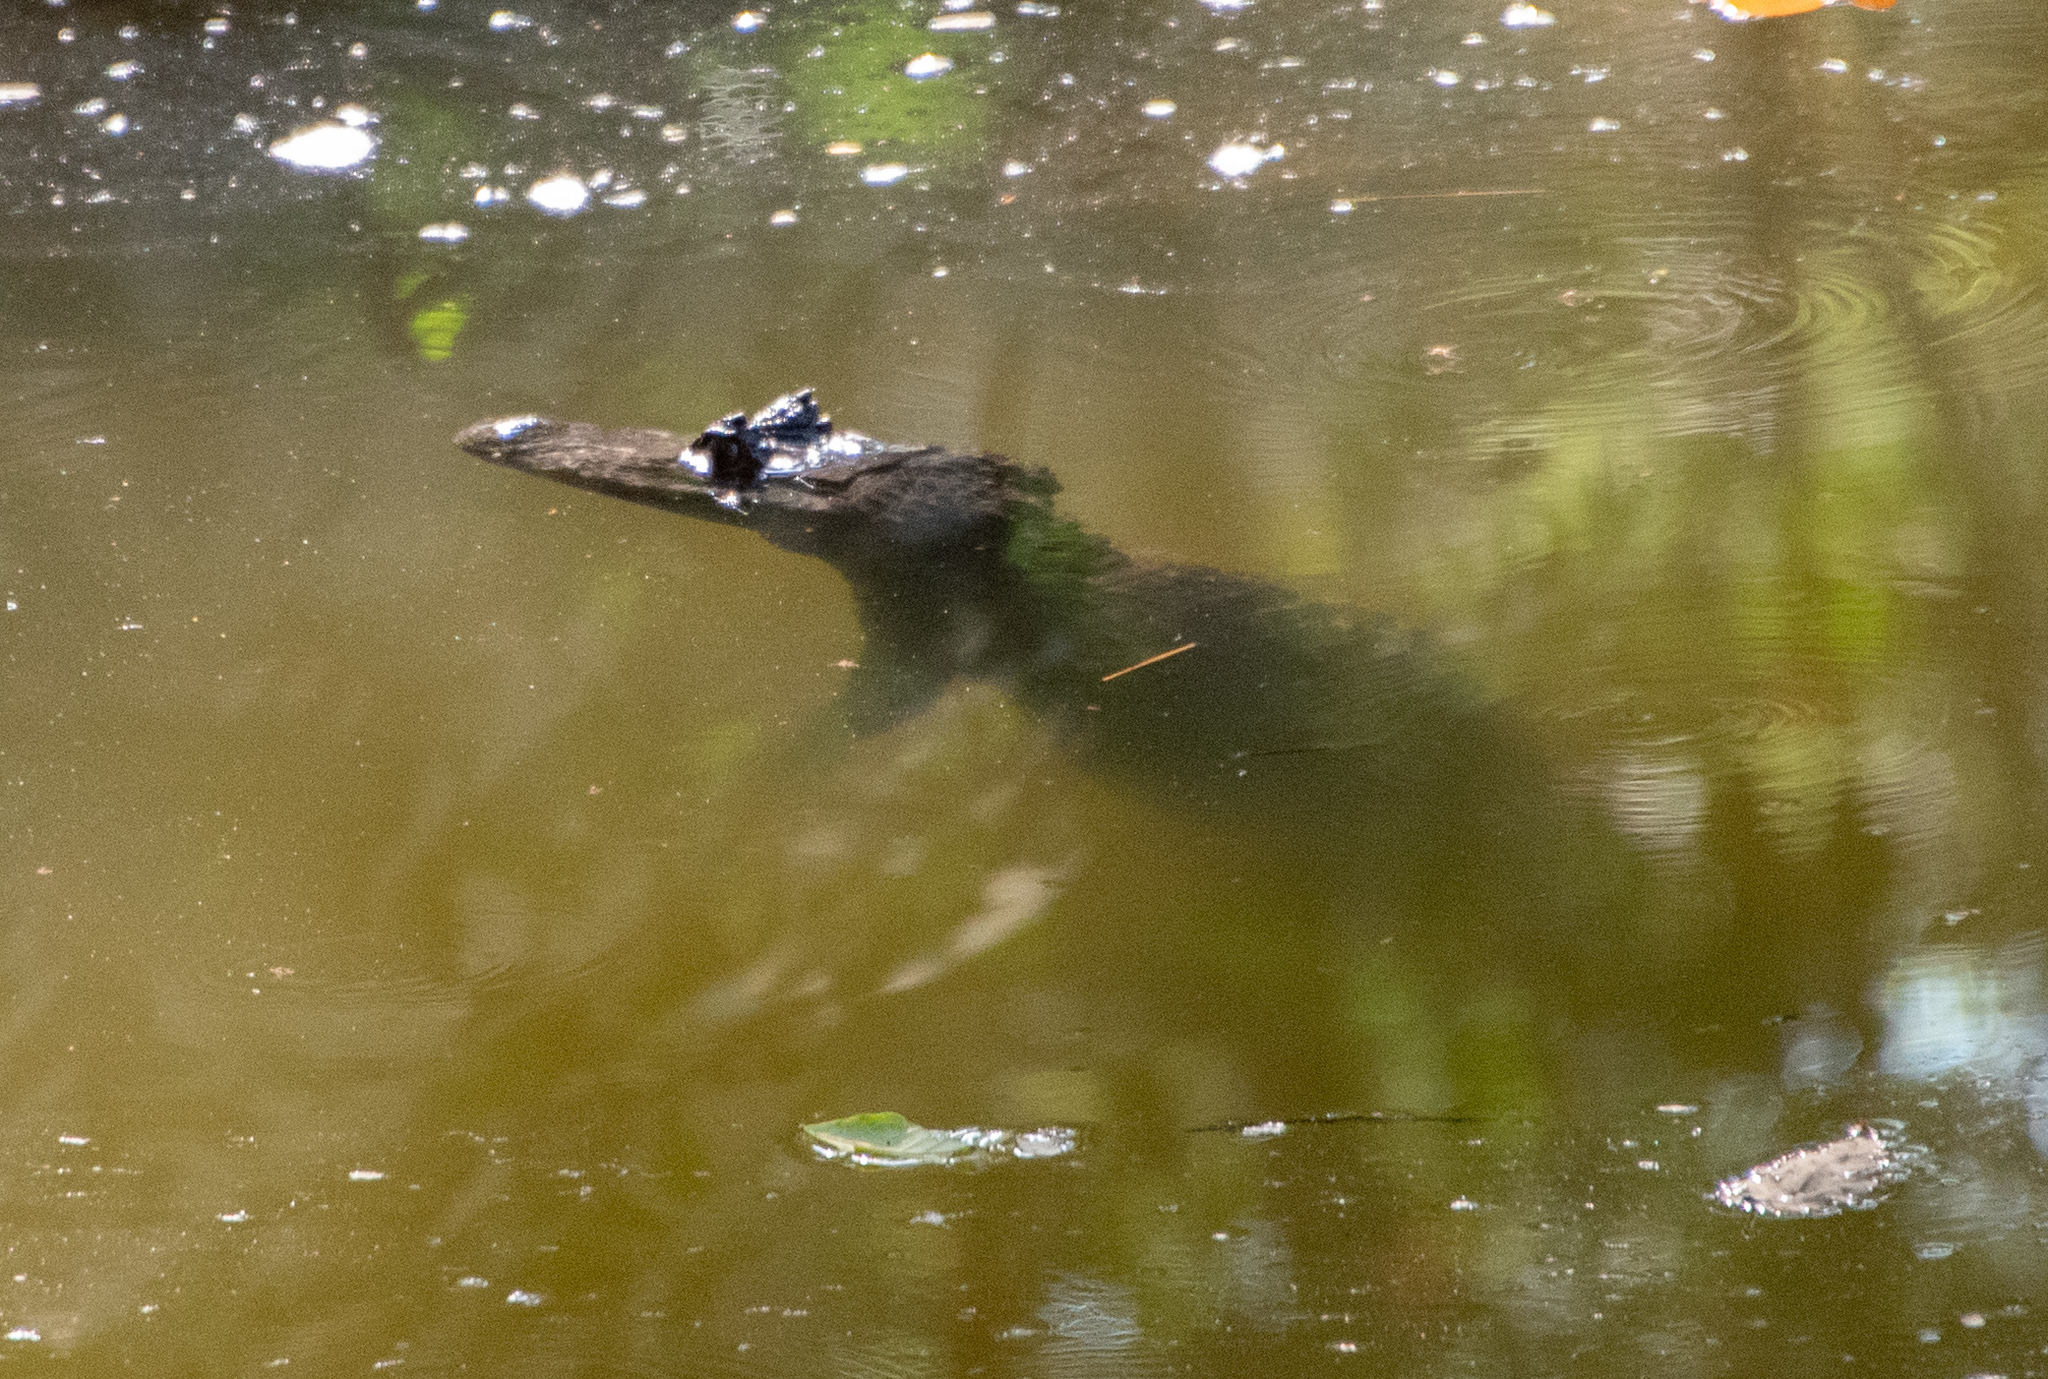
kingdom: Animalia
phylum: Chordata
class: Crocodylia
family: Alligatoridae
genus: Caiman
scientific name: Caiman crocodilus
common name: Common caiman
